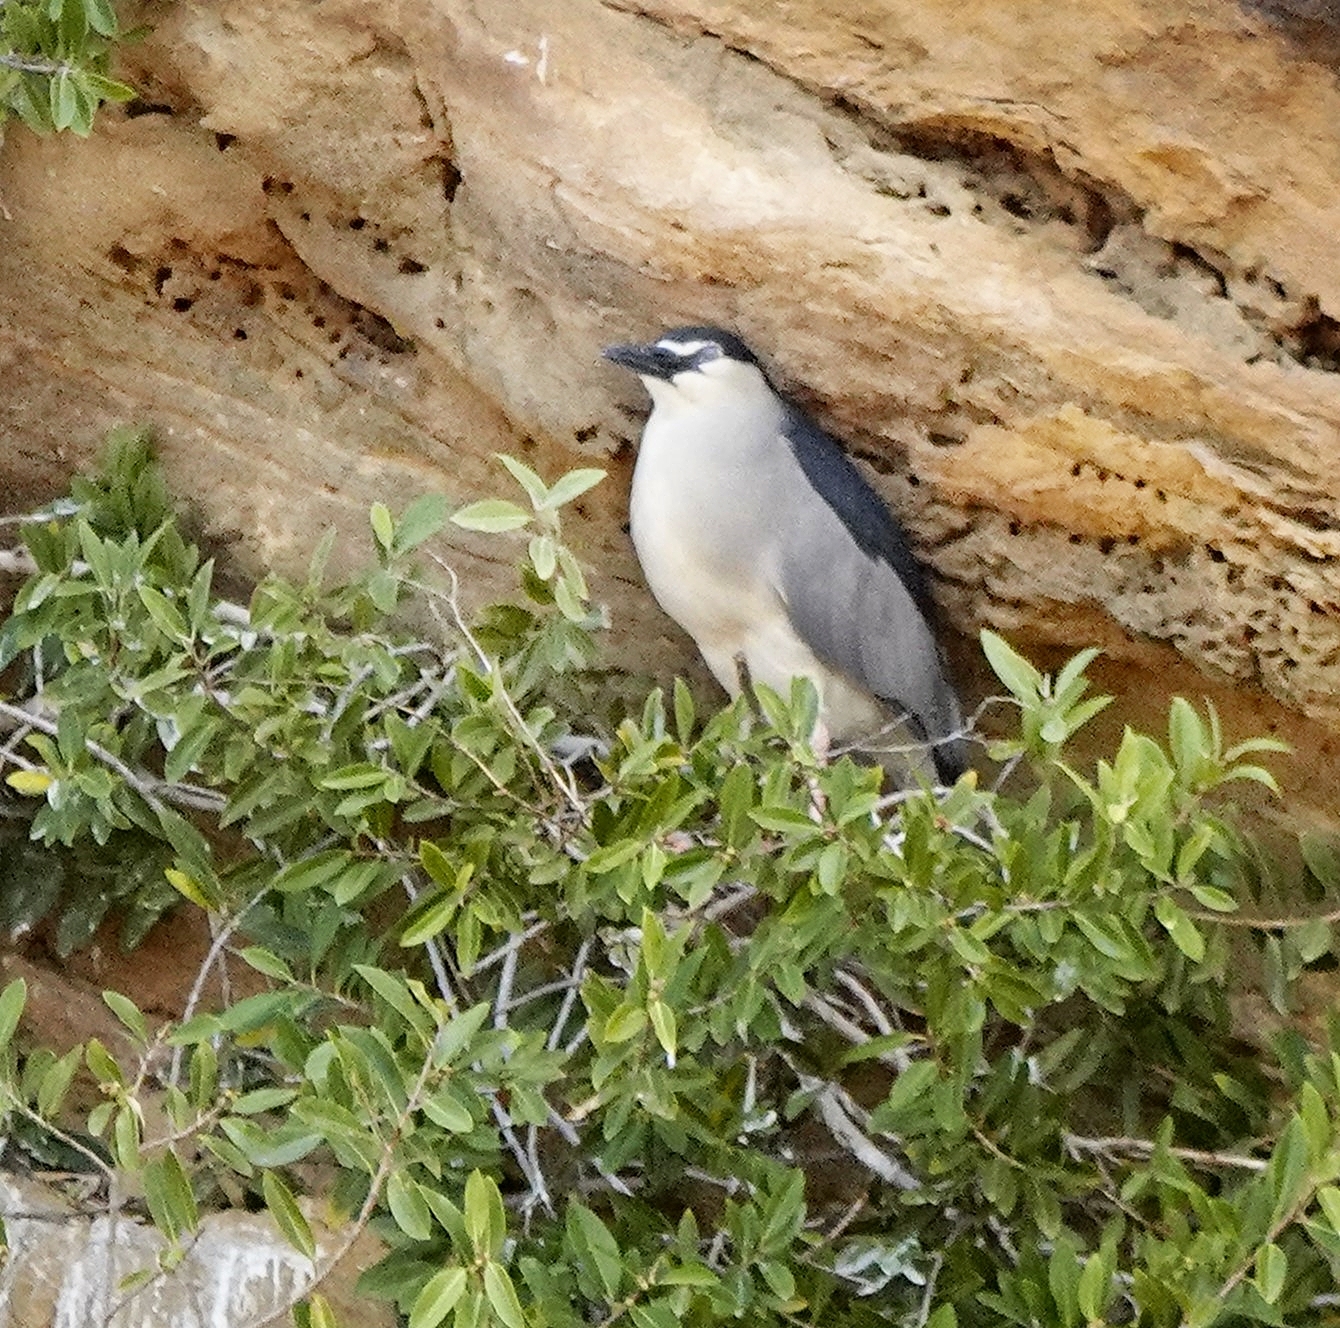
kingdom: Animalia
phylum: Chordata
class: Aves
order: Pelecaniformes
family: Ardeidae
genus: Nycticorax
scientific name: Nycticorax nycticorax
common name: Black-crowned night heron
